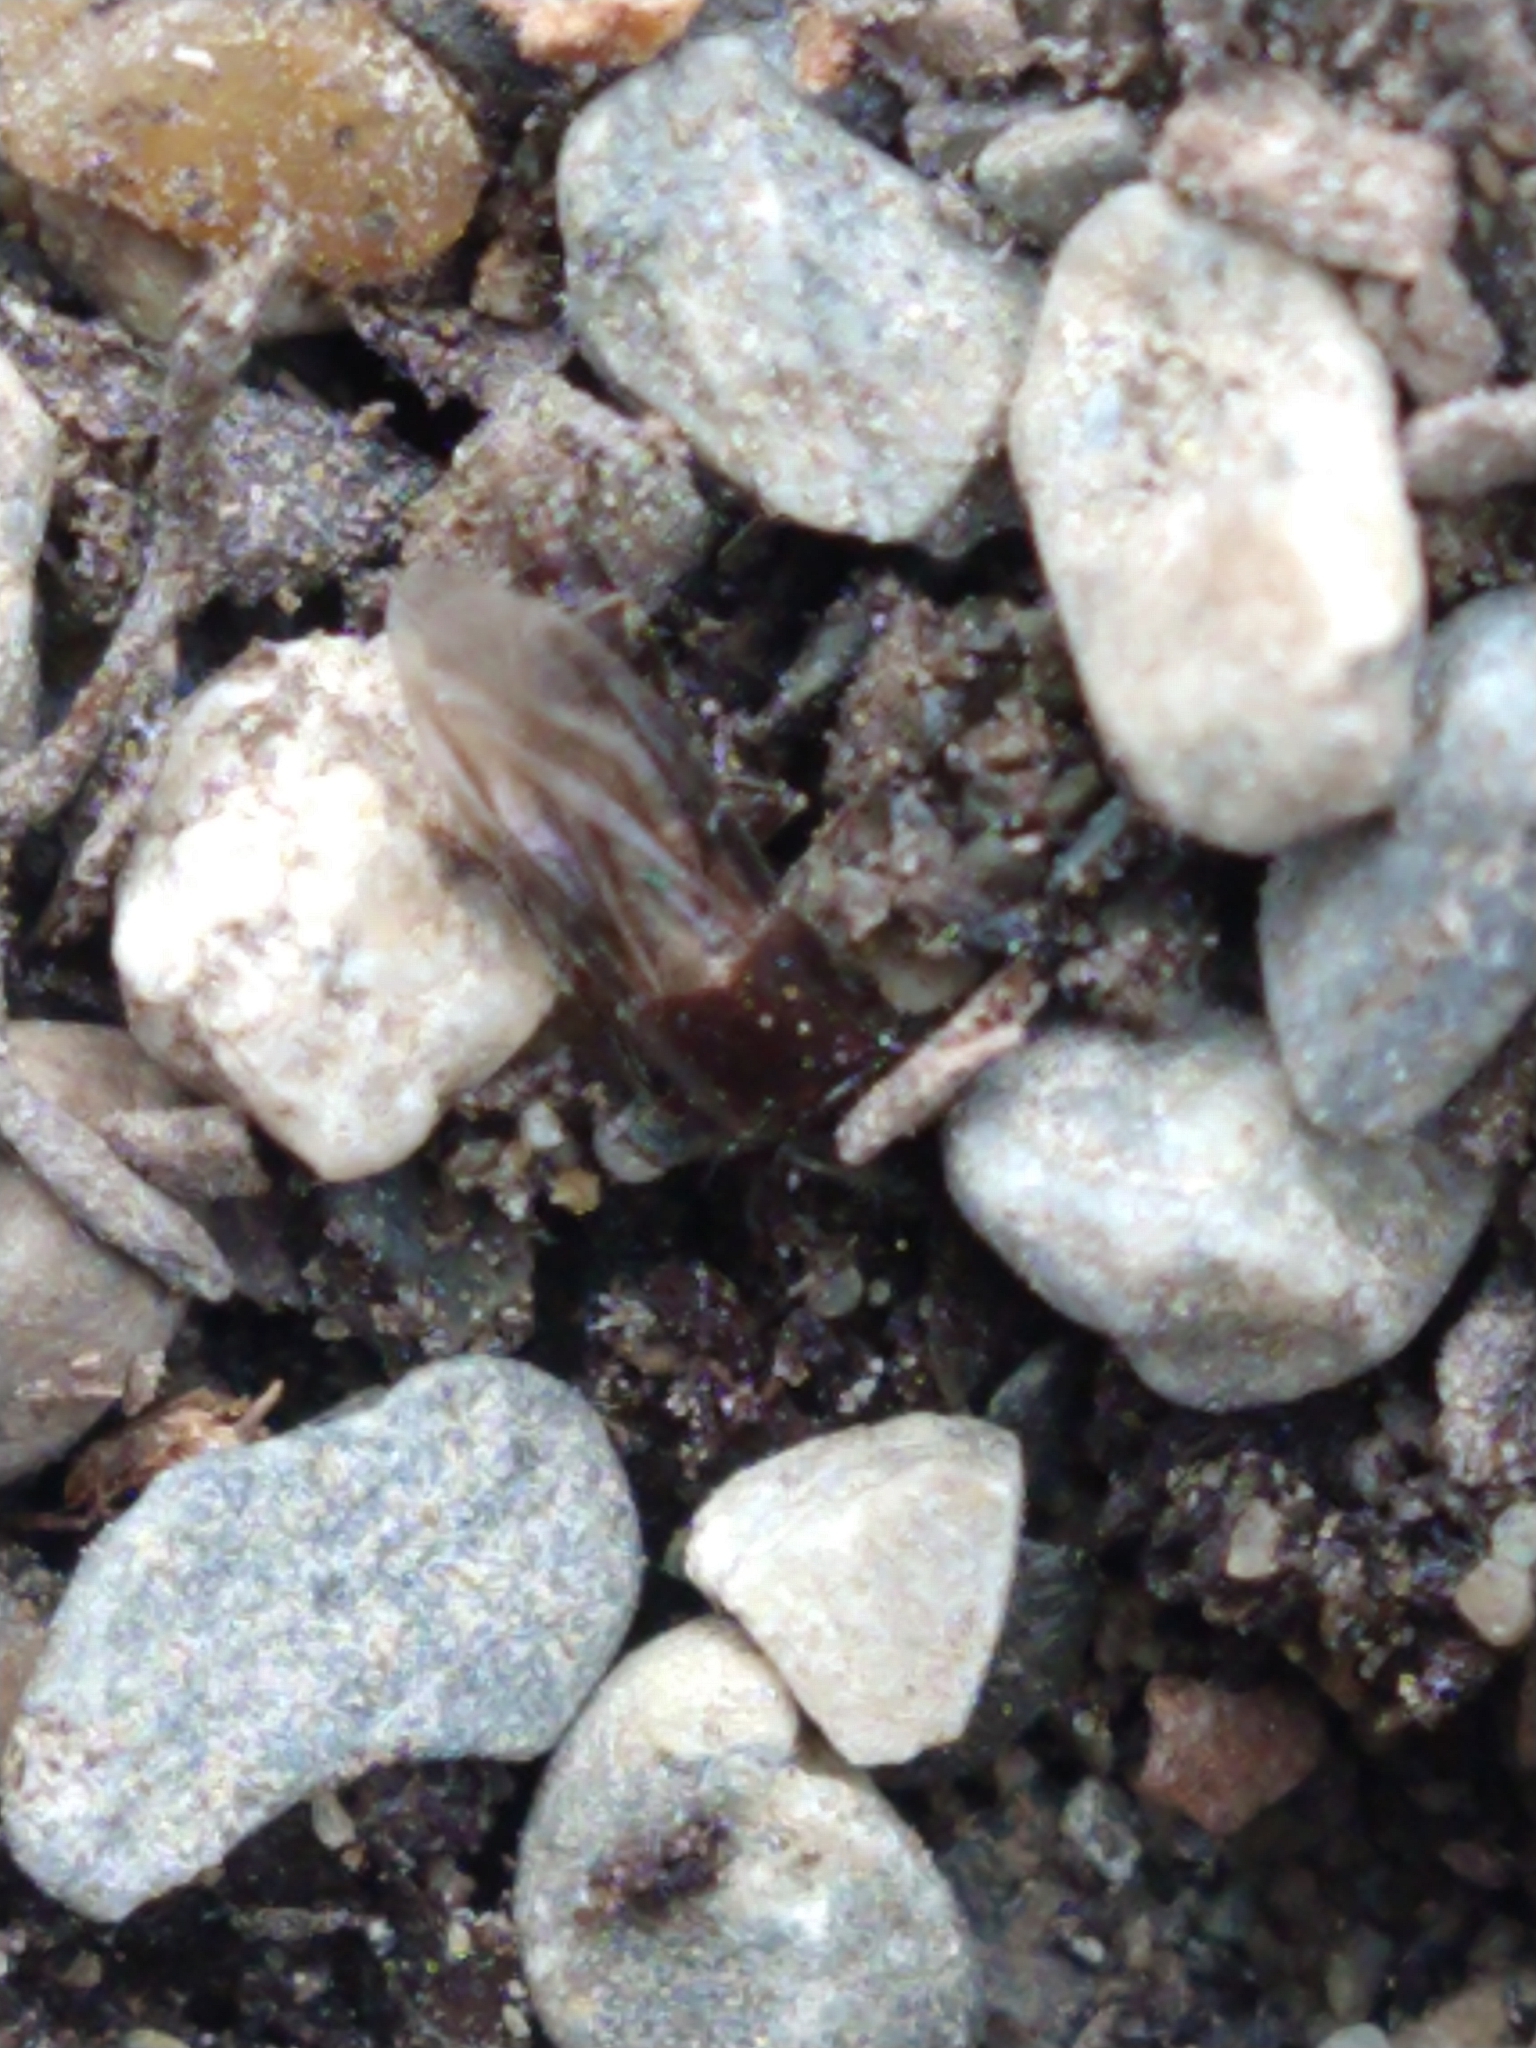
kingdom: Animalia
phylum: Arthropoda
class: Insecta
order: Coleoptera
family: Staphylinidae
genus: Cheilocolpus
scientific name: Cheilocolpus
